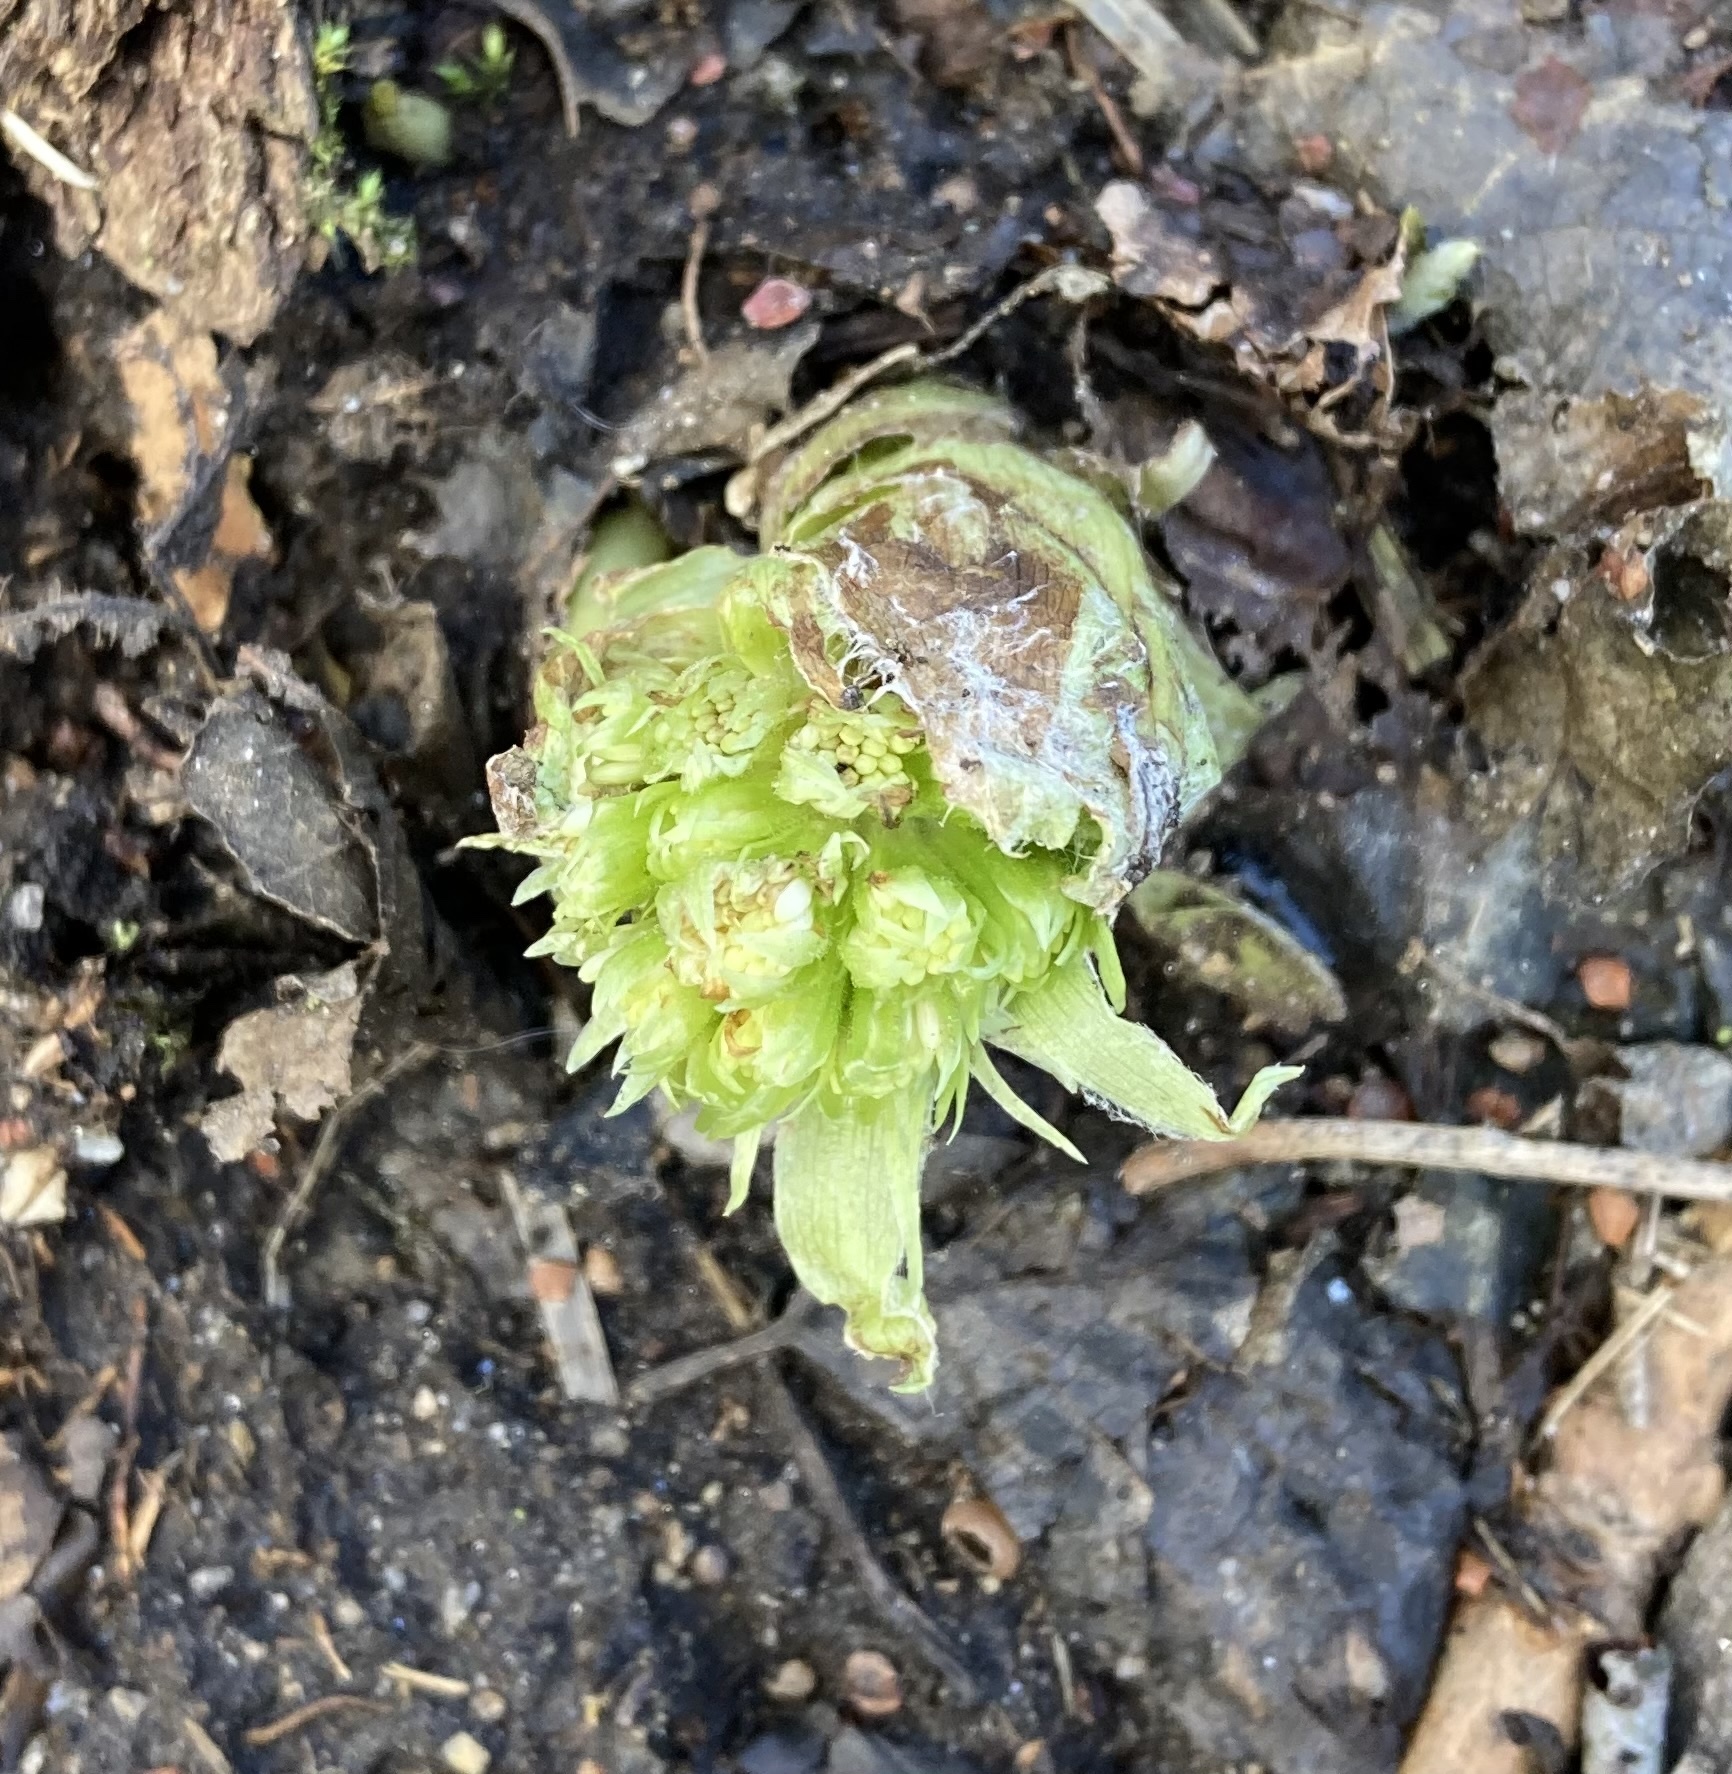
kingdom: Plantae
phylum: Tracheophyta
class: Magnoliopsida
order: Asterales
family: Asteraceae
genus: Petasites
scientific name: Petasites albus
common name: White butterbur
